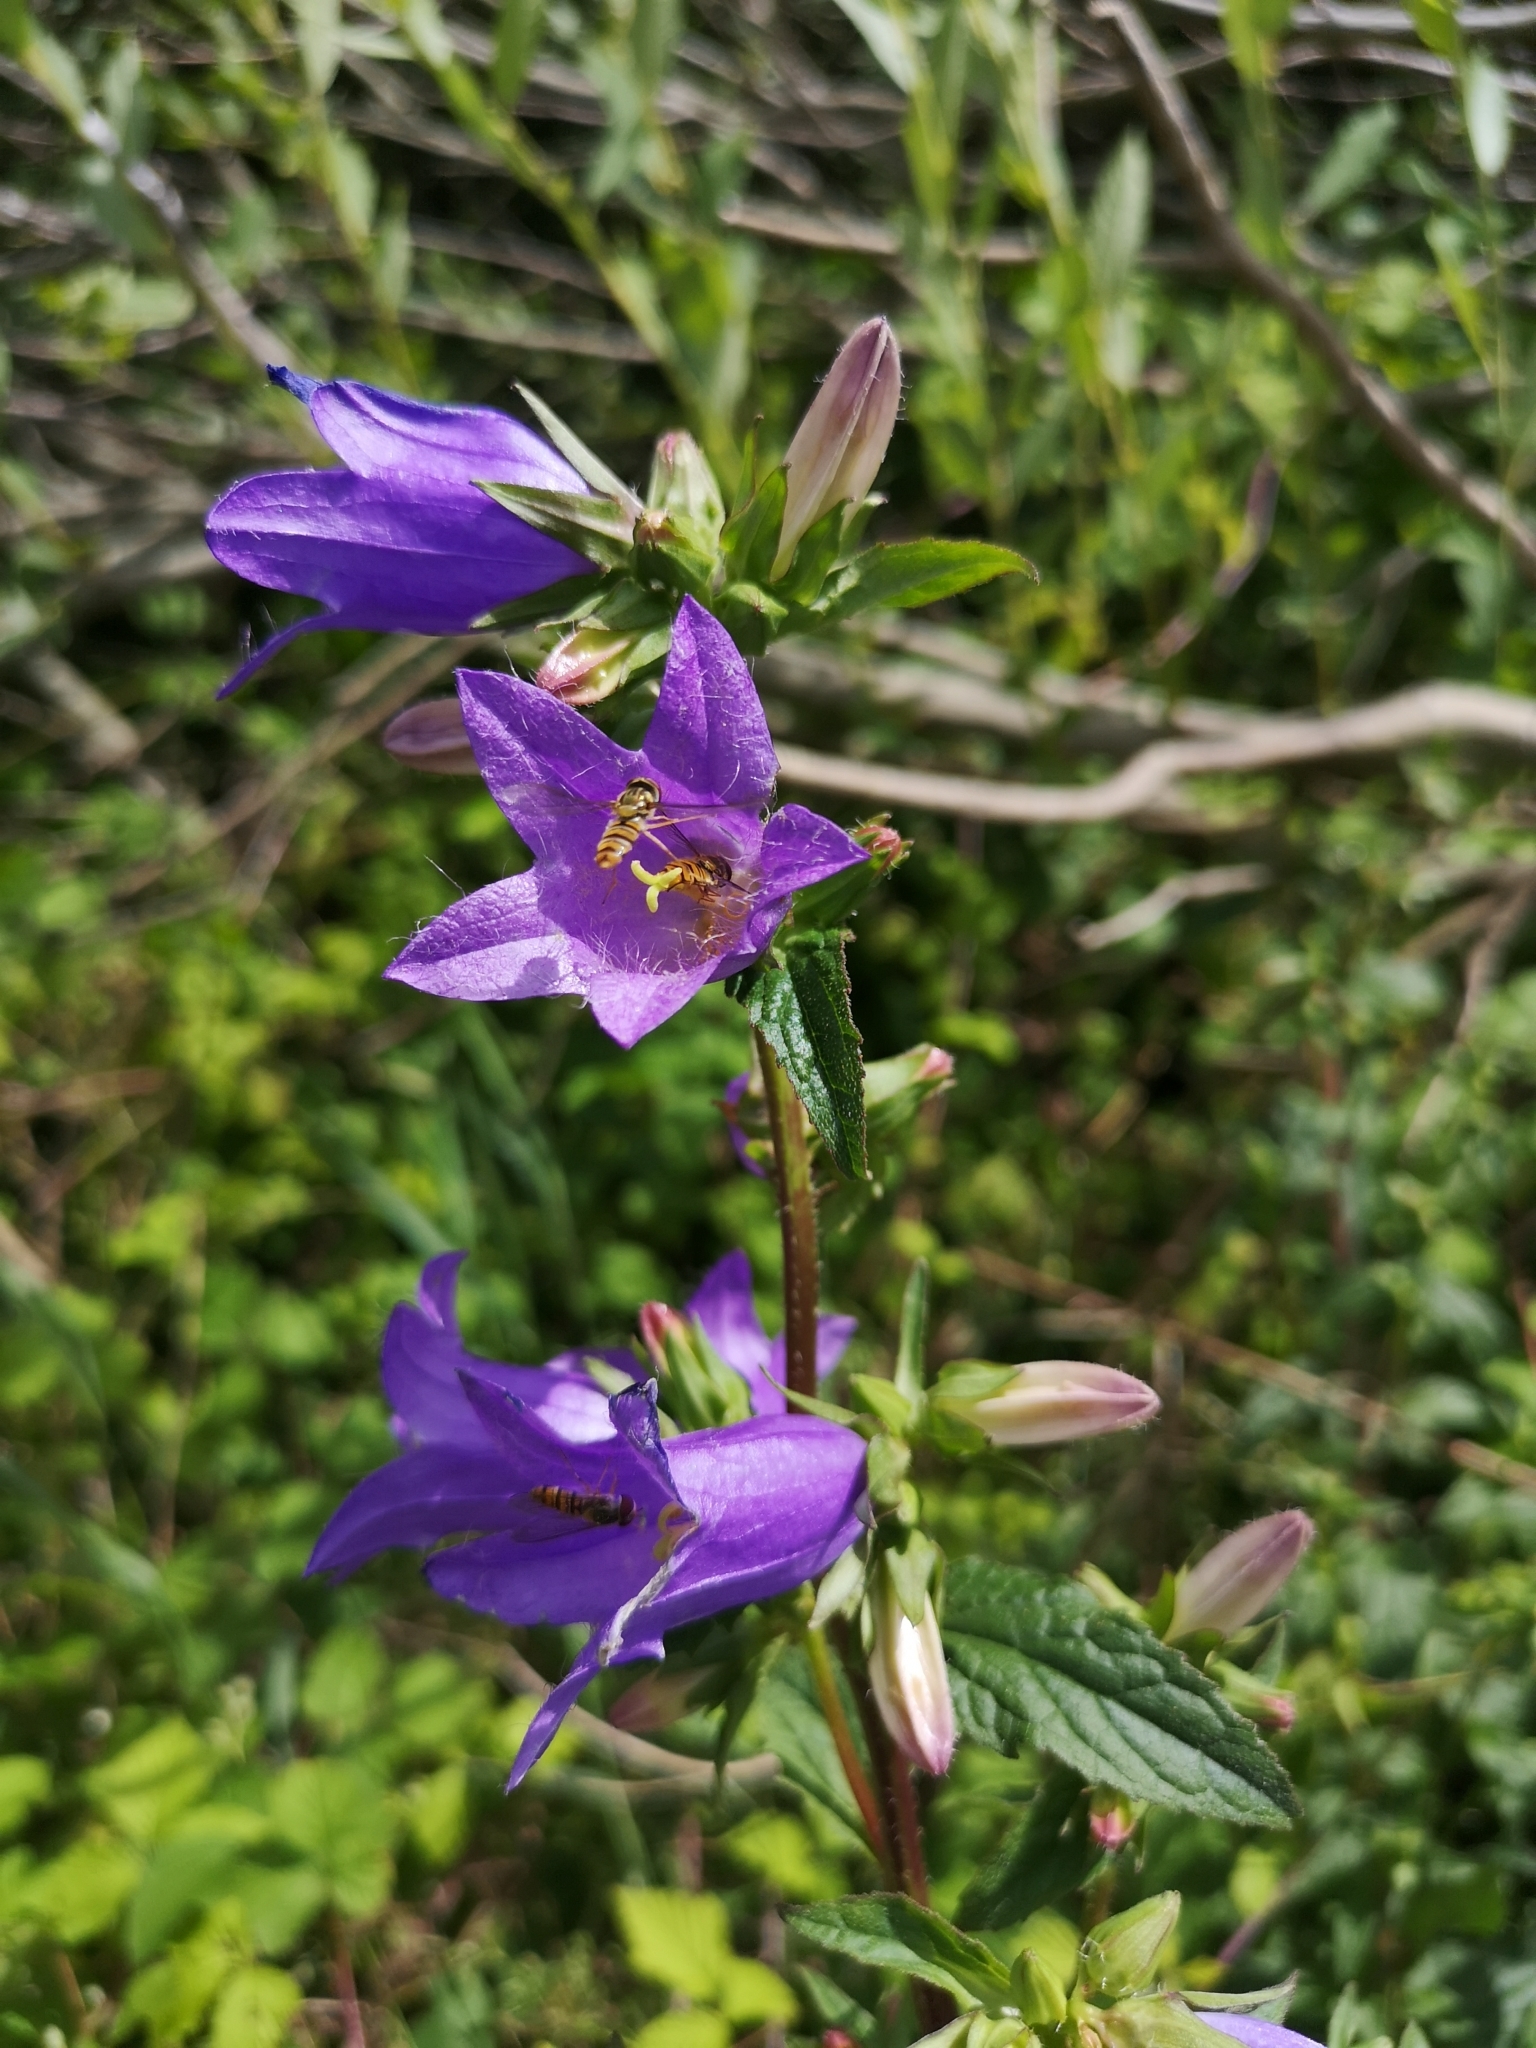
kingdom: Plantae
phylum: Tracheophyta
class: Magnoliopsida
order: Asterales
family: Campanulaceae
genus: Campanula
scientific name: Campanula trachelium
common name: Nettle-leaved bellflower
